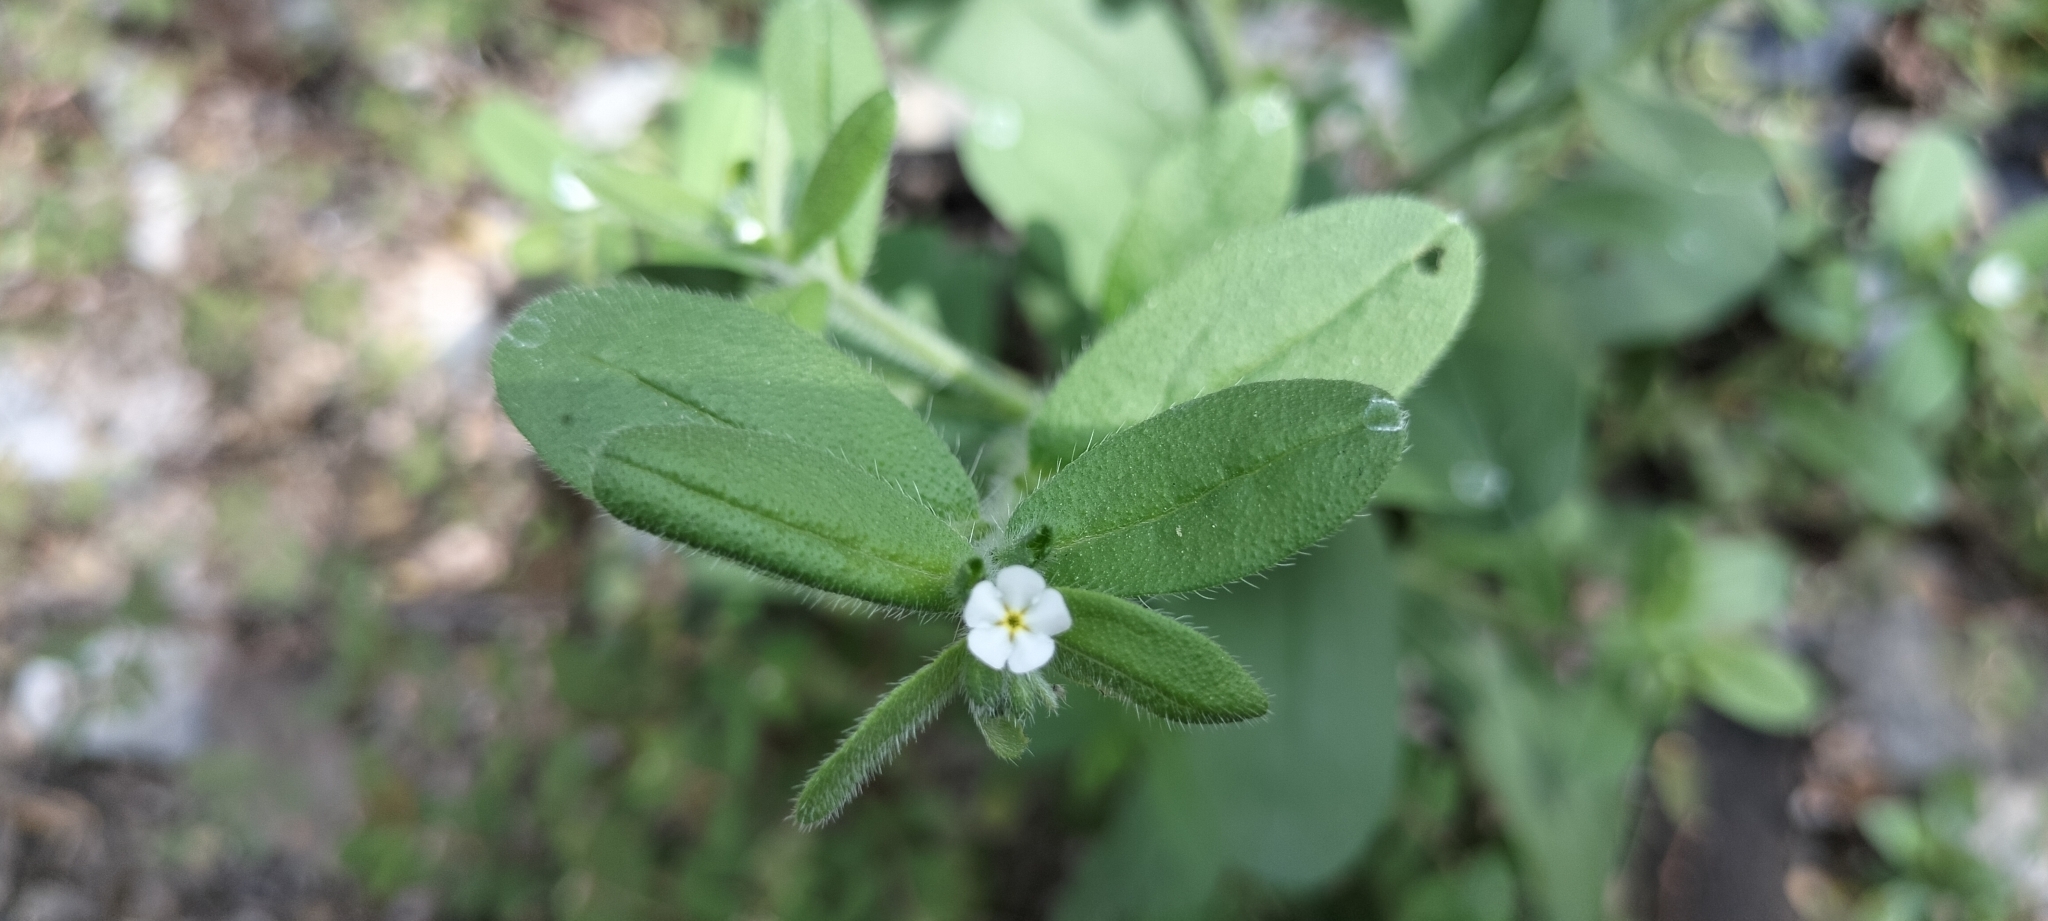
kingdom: Plantae
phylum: Tracheophyta
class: Magnoliopsida
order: Boraginales
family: Boraginaceae
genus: Lithospermum
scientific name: Lithospermum matamorense
